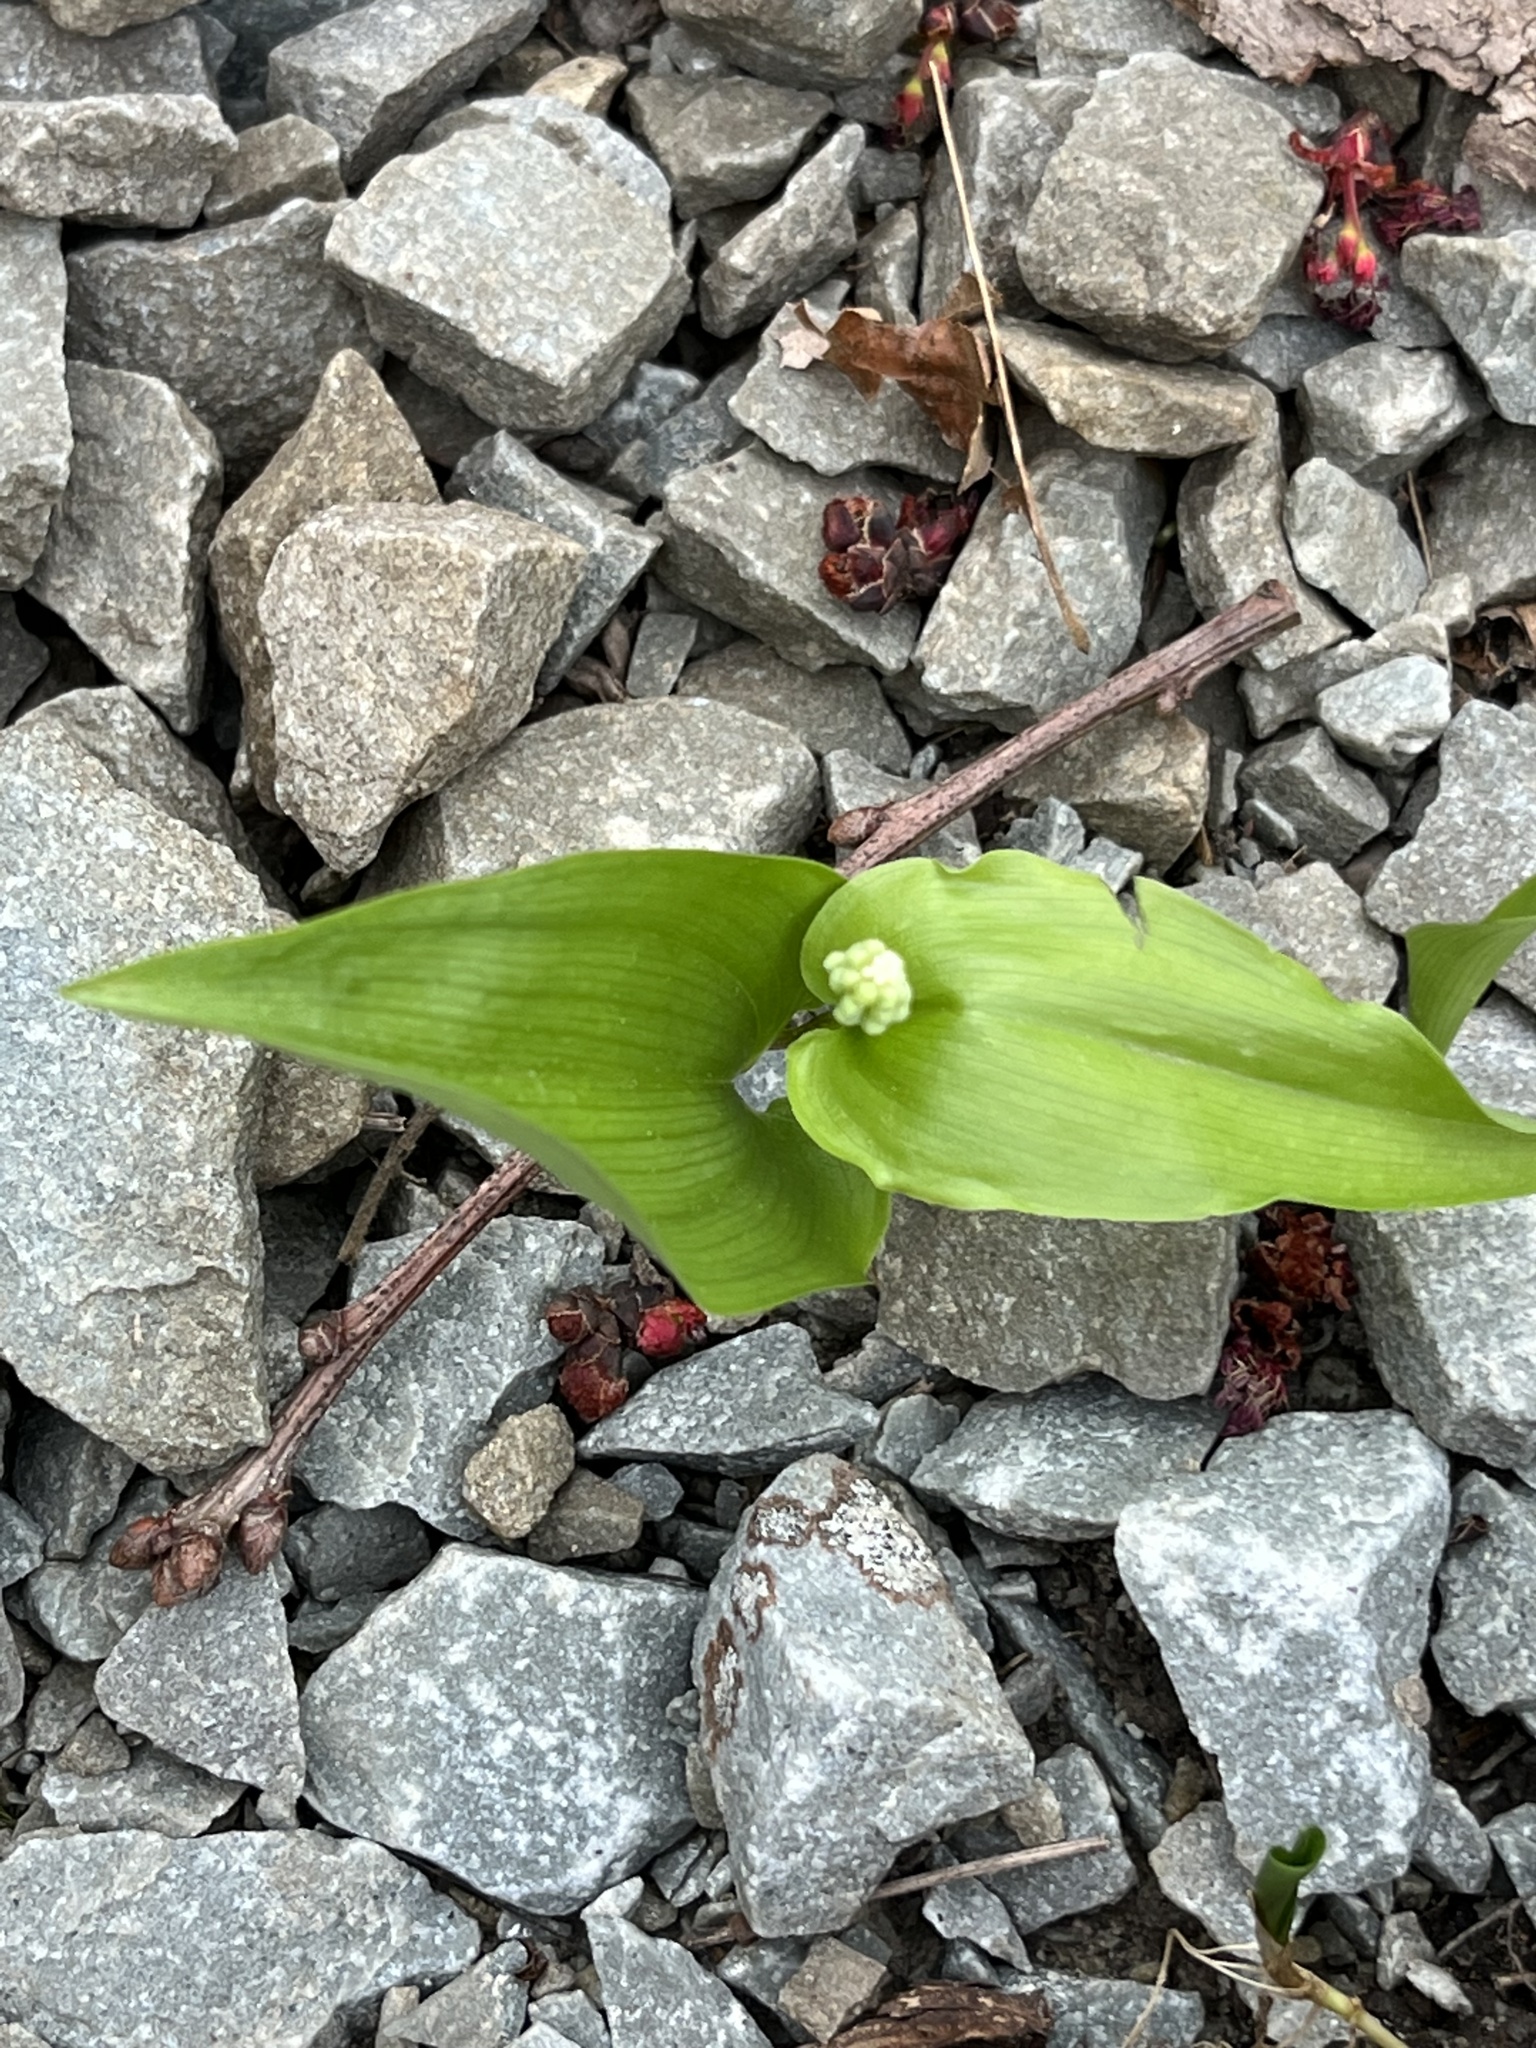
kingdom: Plantae
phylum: Tracheophyta
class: Liliopsida
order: Asparagales
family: Asparagaceae
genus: Maianthemum
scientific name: Maianthemum canadense
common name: False lily-of-the-valley
